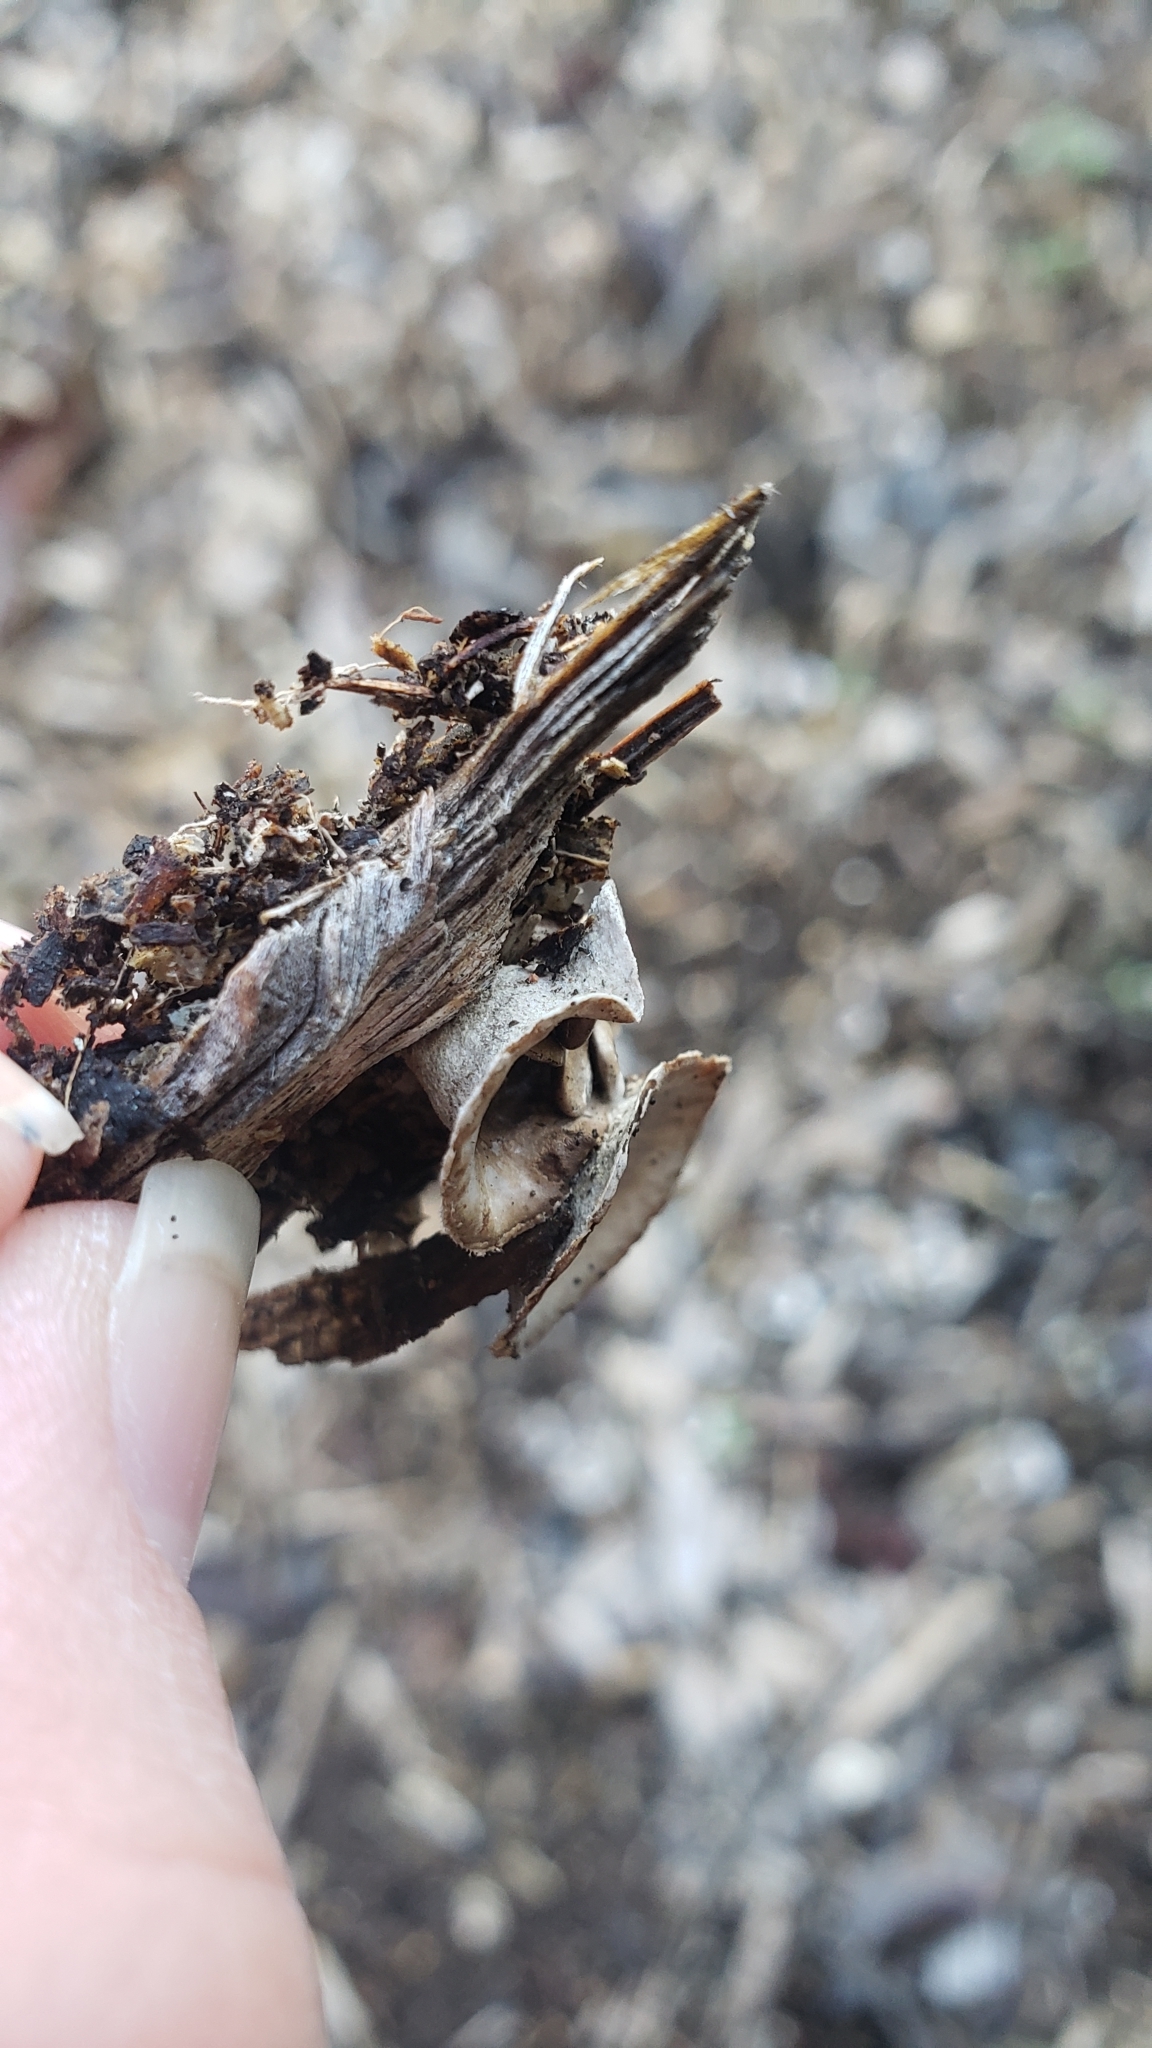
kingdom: Fungi
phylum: Basidiomycota
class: Agaricomycetes
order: Agaricales
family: Agaricaceae
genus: Cyathus
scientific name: Cyathus olla
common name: Field bird's nest
